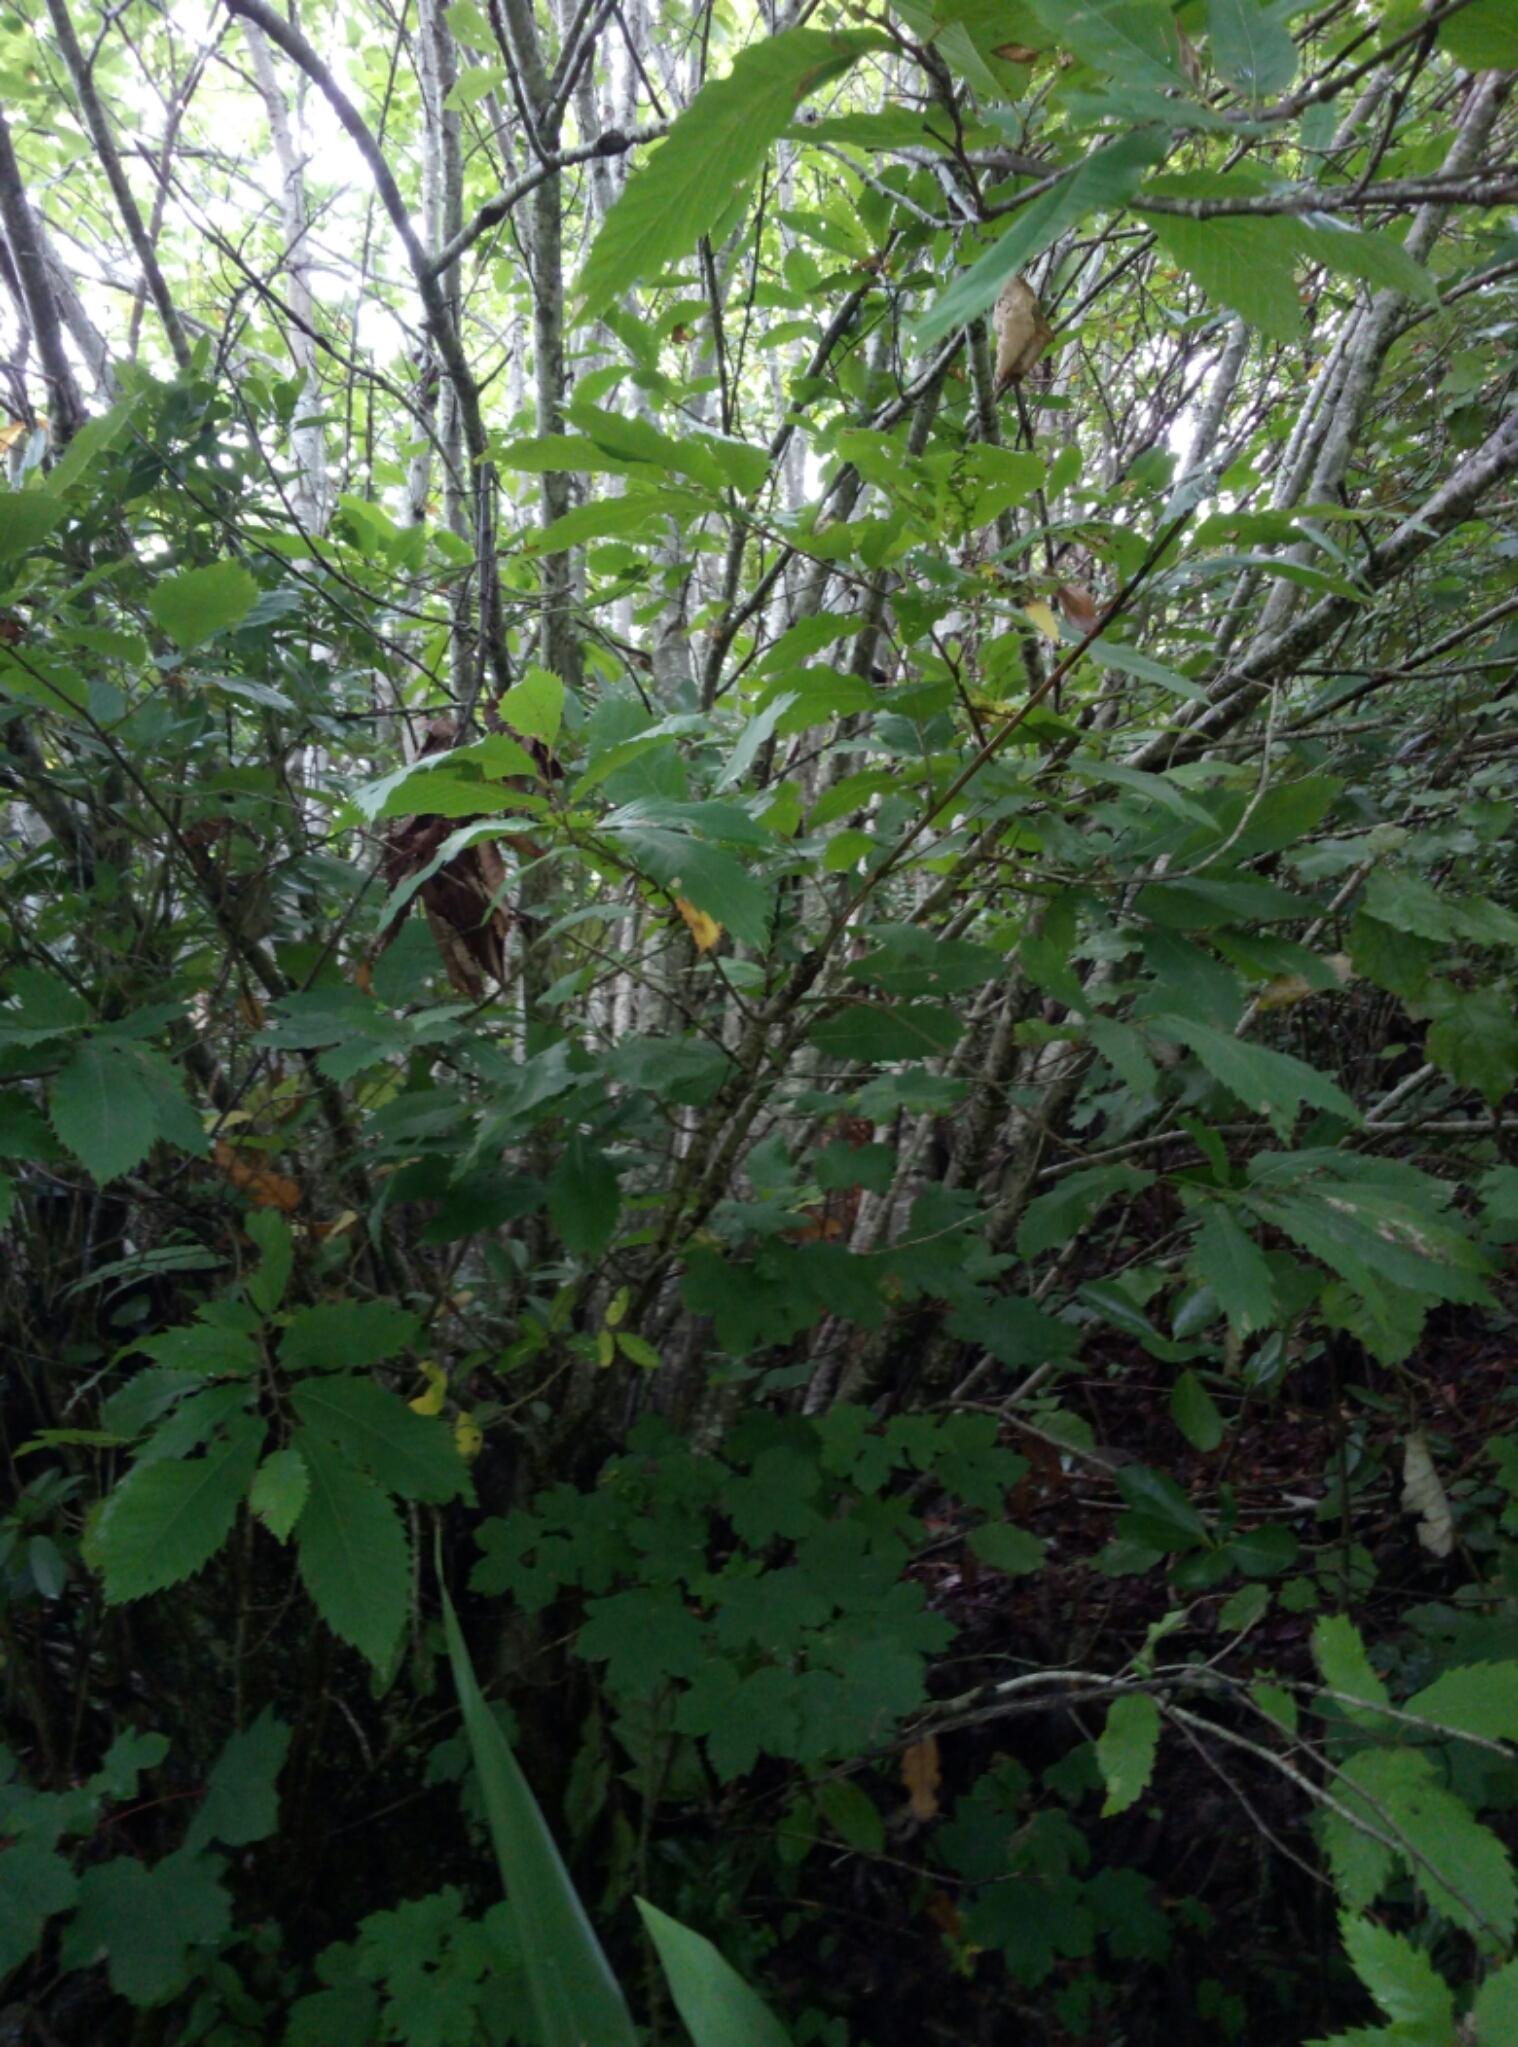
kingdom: Plantae
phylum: Tracheophyta
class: Magnoliopsida
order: Fagales
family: Fagaceae
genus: Castanea
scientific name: Castanea sativa
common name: Sweet chestnut
